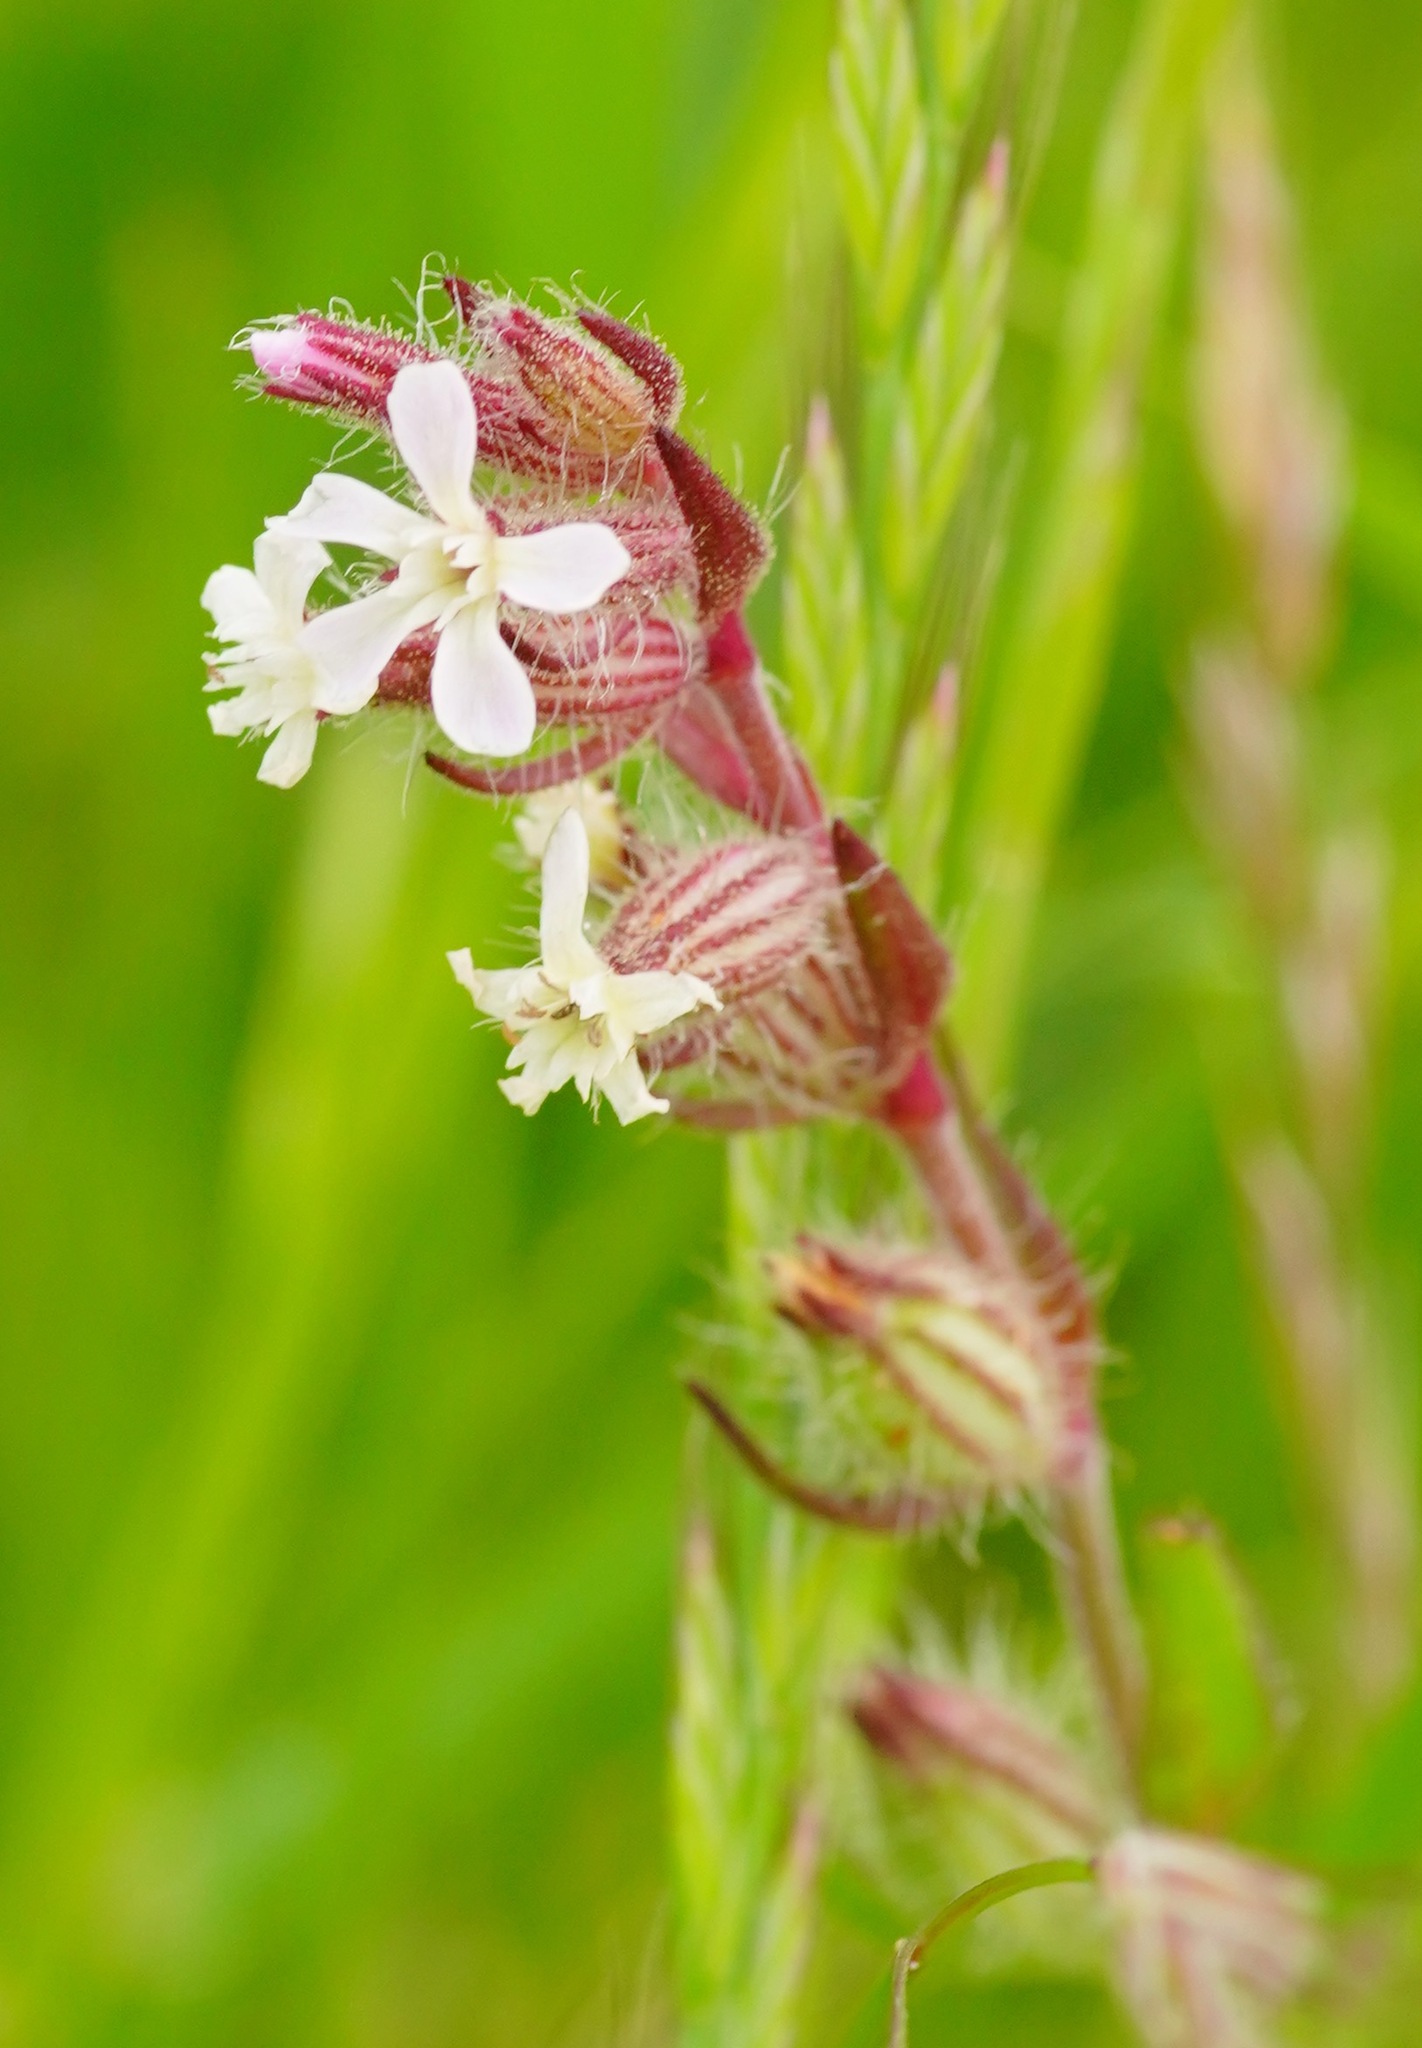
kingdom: Plantae
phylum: Tracheophyta
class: Magnoliopsida
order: Caryophyllales
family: Caryophyllaceae
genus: Silene
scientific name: Silene gallica
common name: Small-flowered catchfly
